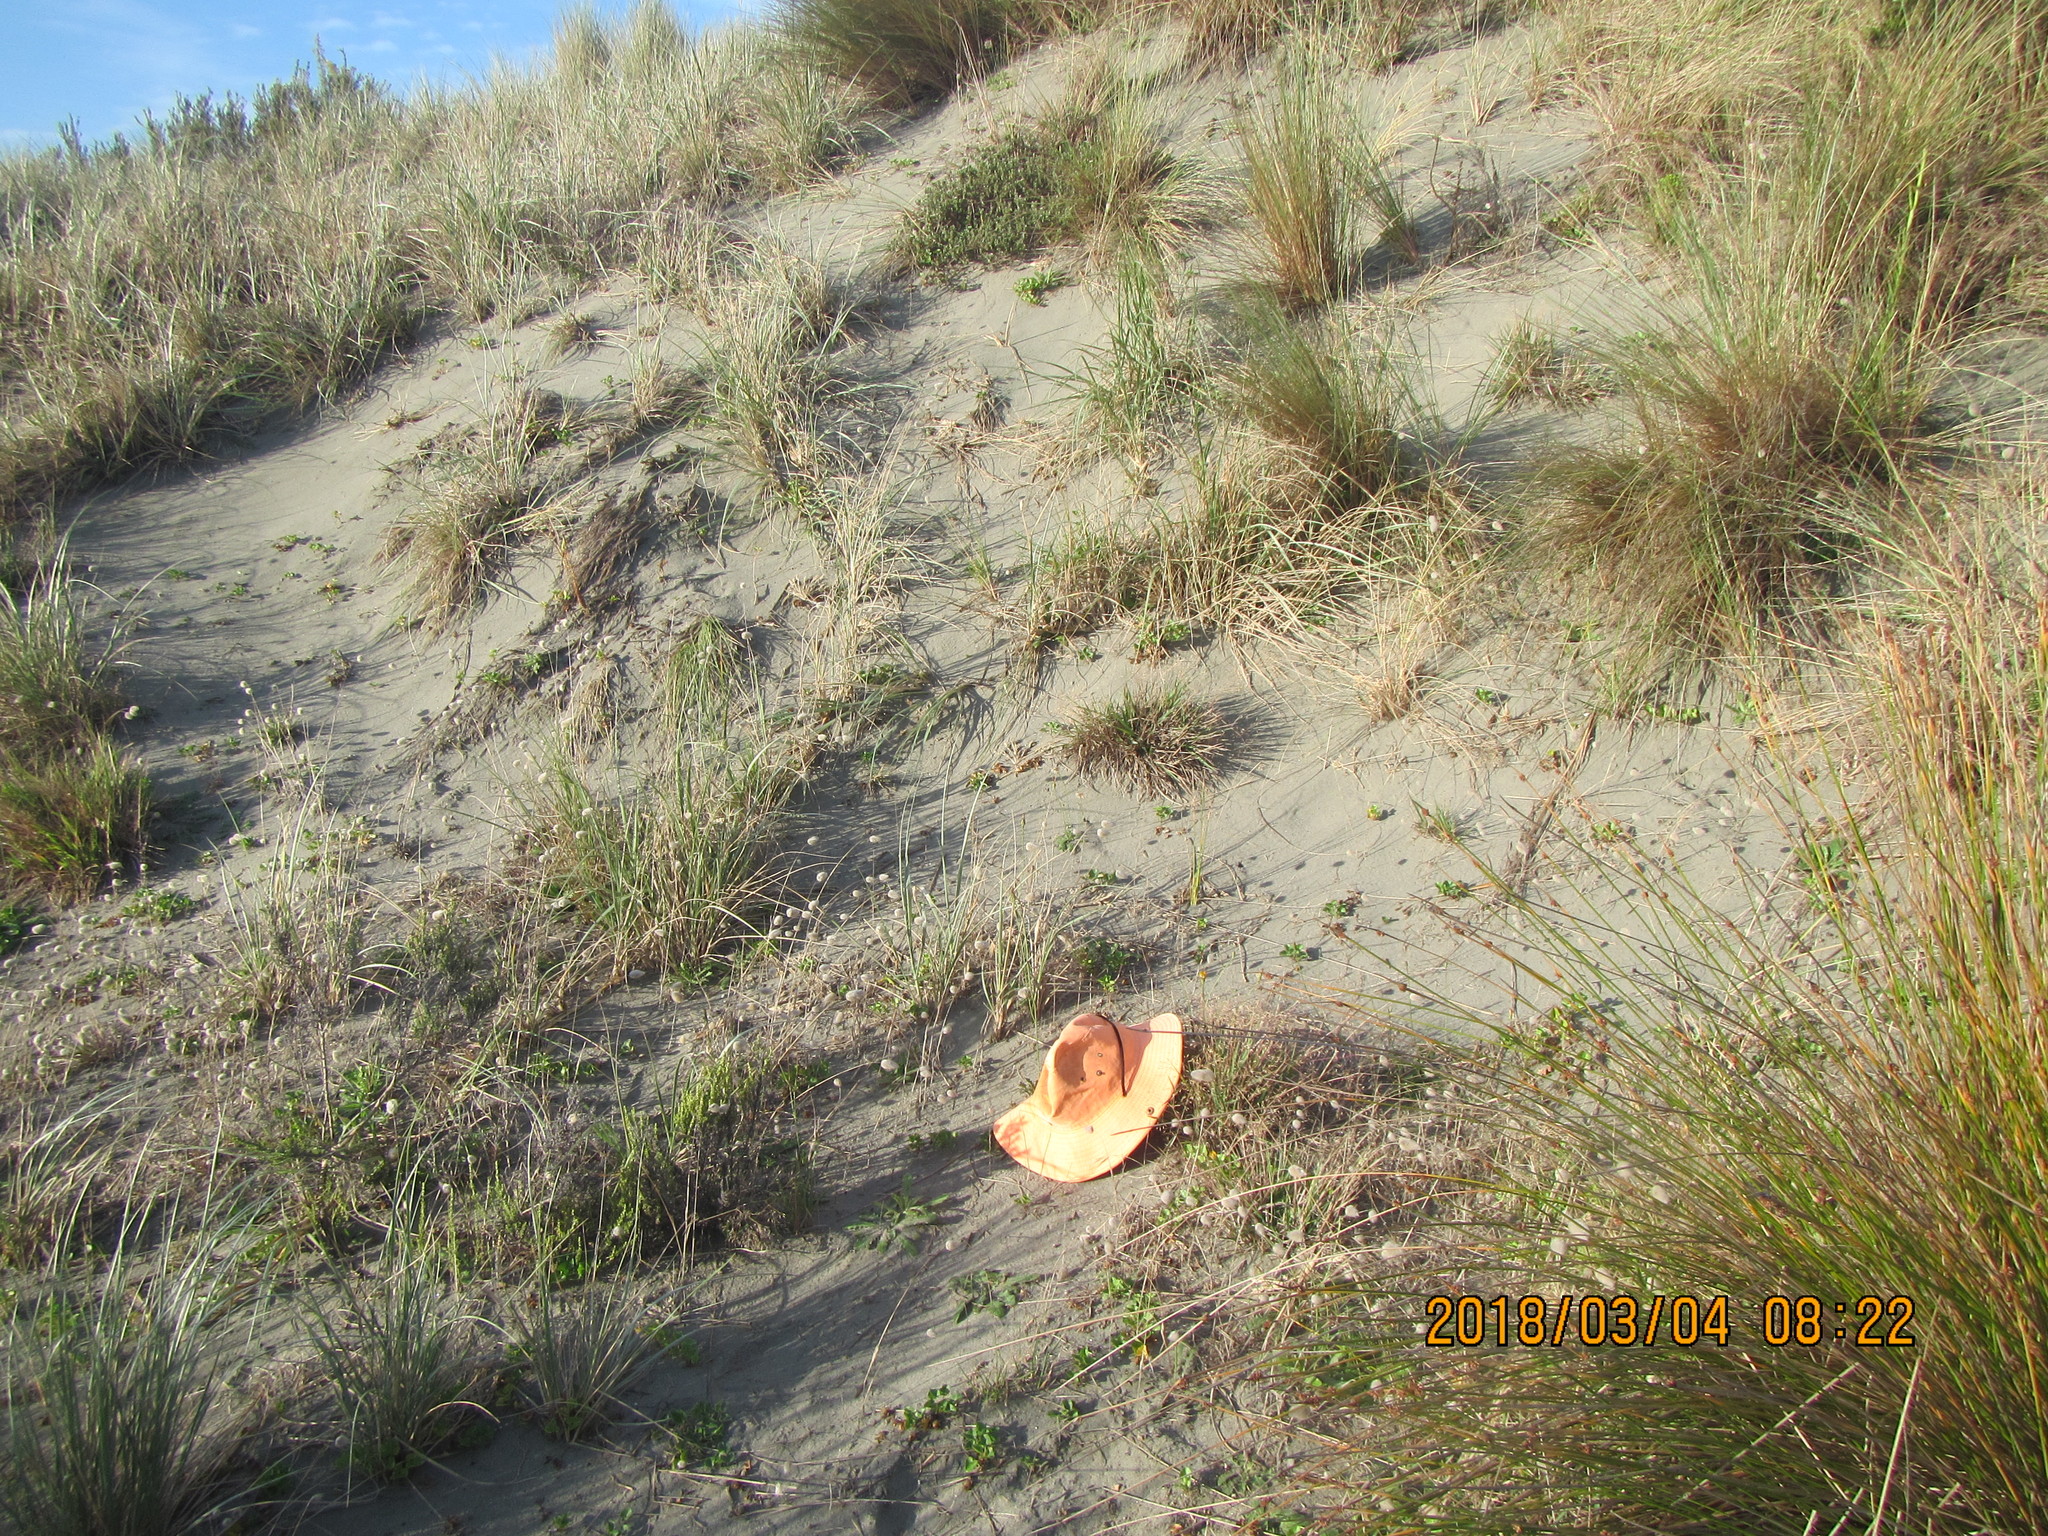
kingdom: Plantae
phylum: Tracheophyta
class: Liliopsida
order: Poales
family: Poaceae
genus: Lachnagrostis
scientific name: Lachnagrostis billardierei
